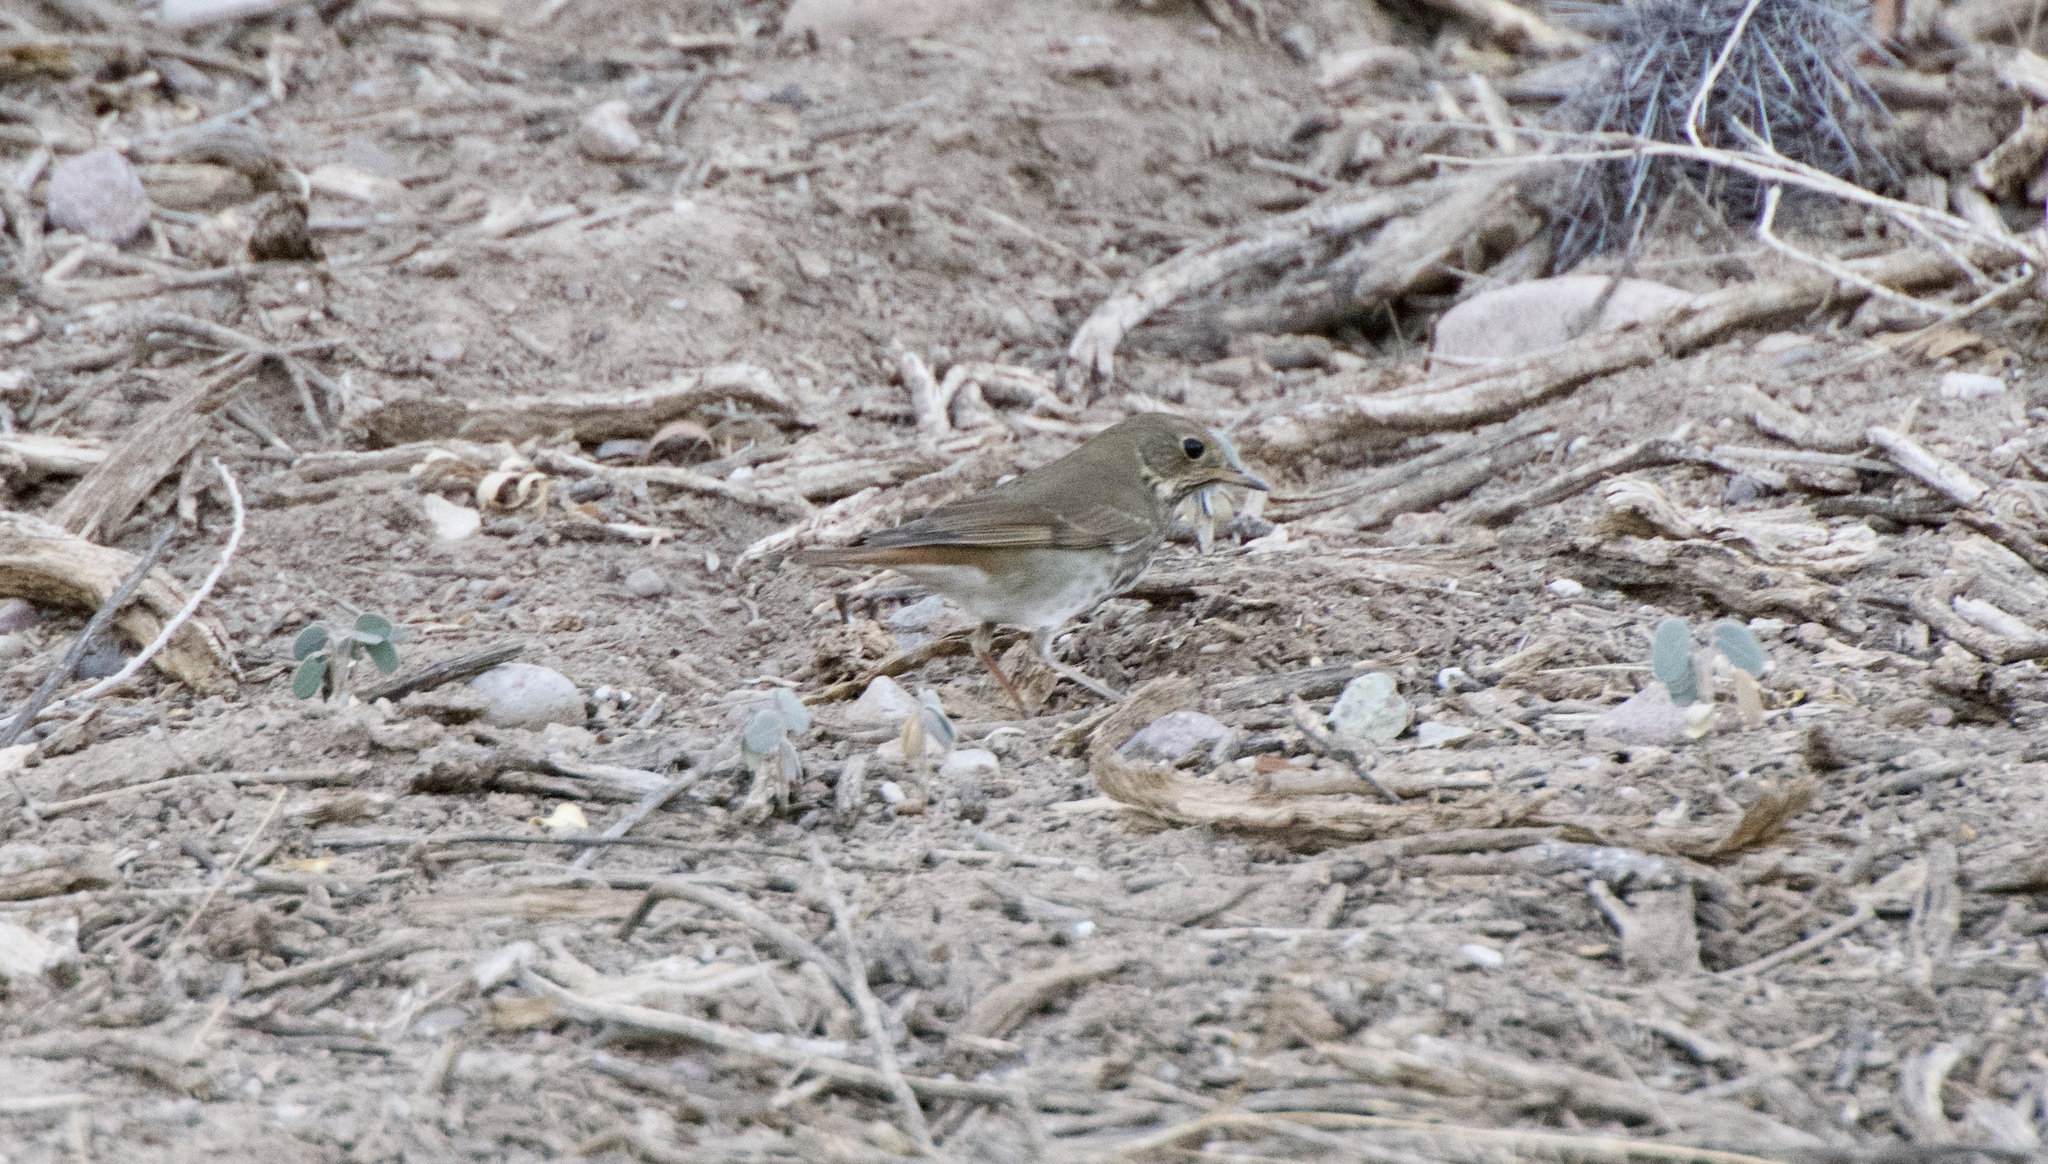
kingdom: Animalia
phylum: Chordata
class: Aves
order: Passeriformes
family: Turdidae
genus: Catharus
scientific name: Catharus guttatus
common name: Hermit thrush
